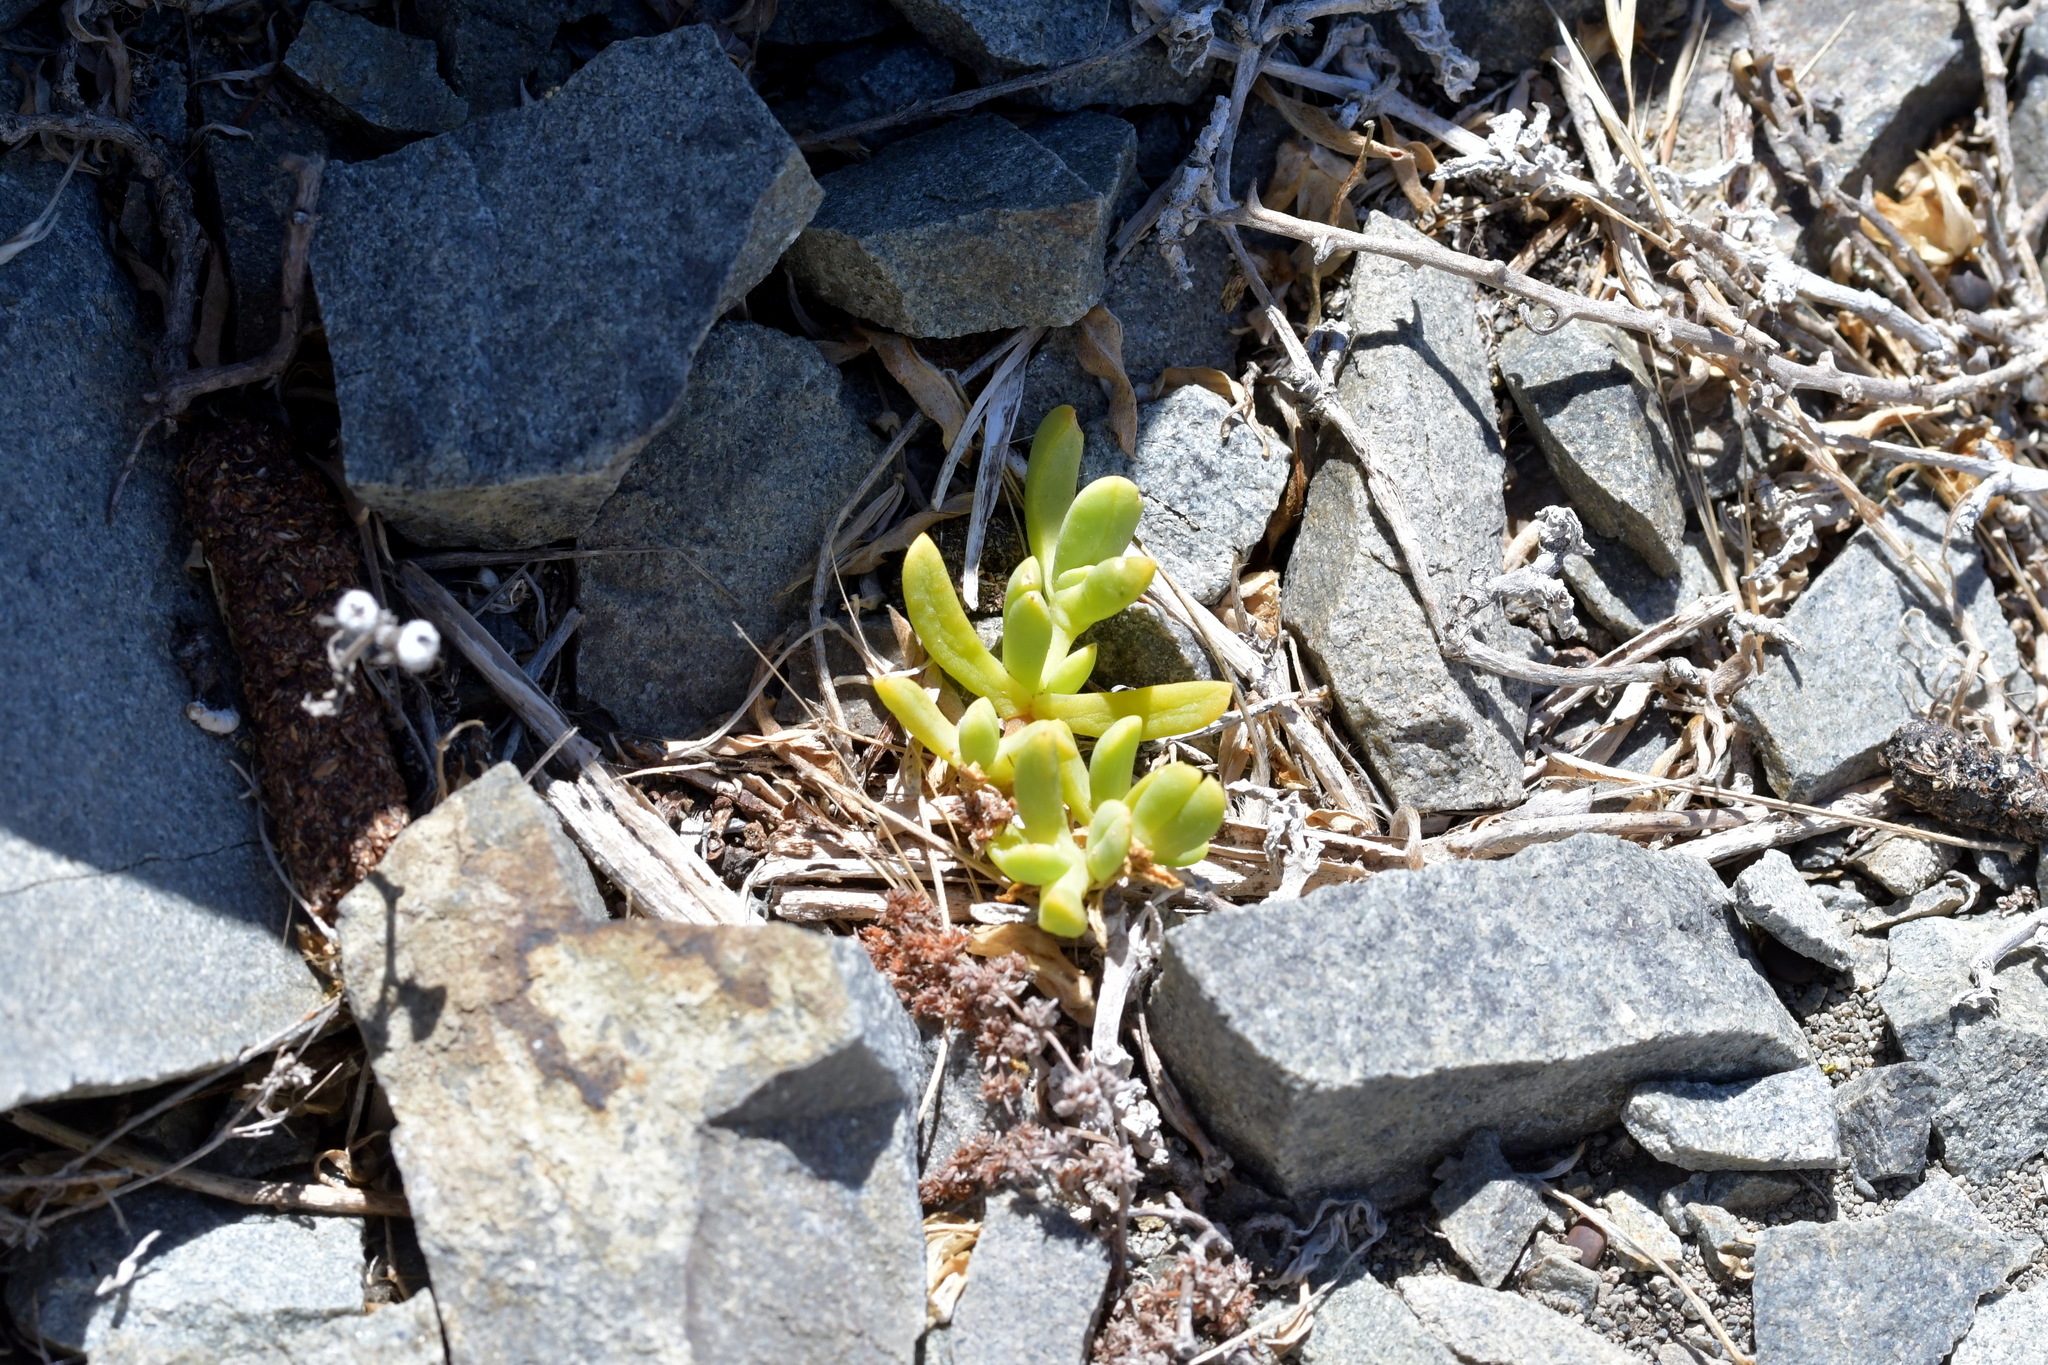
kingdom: Plantae
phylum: Tracheophyta
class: Magnoliopsida
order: Caryophyllales
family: Aizoaceae
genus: Disphyma
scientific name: Disphyma australe
